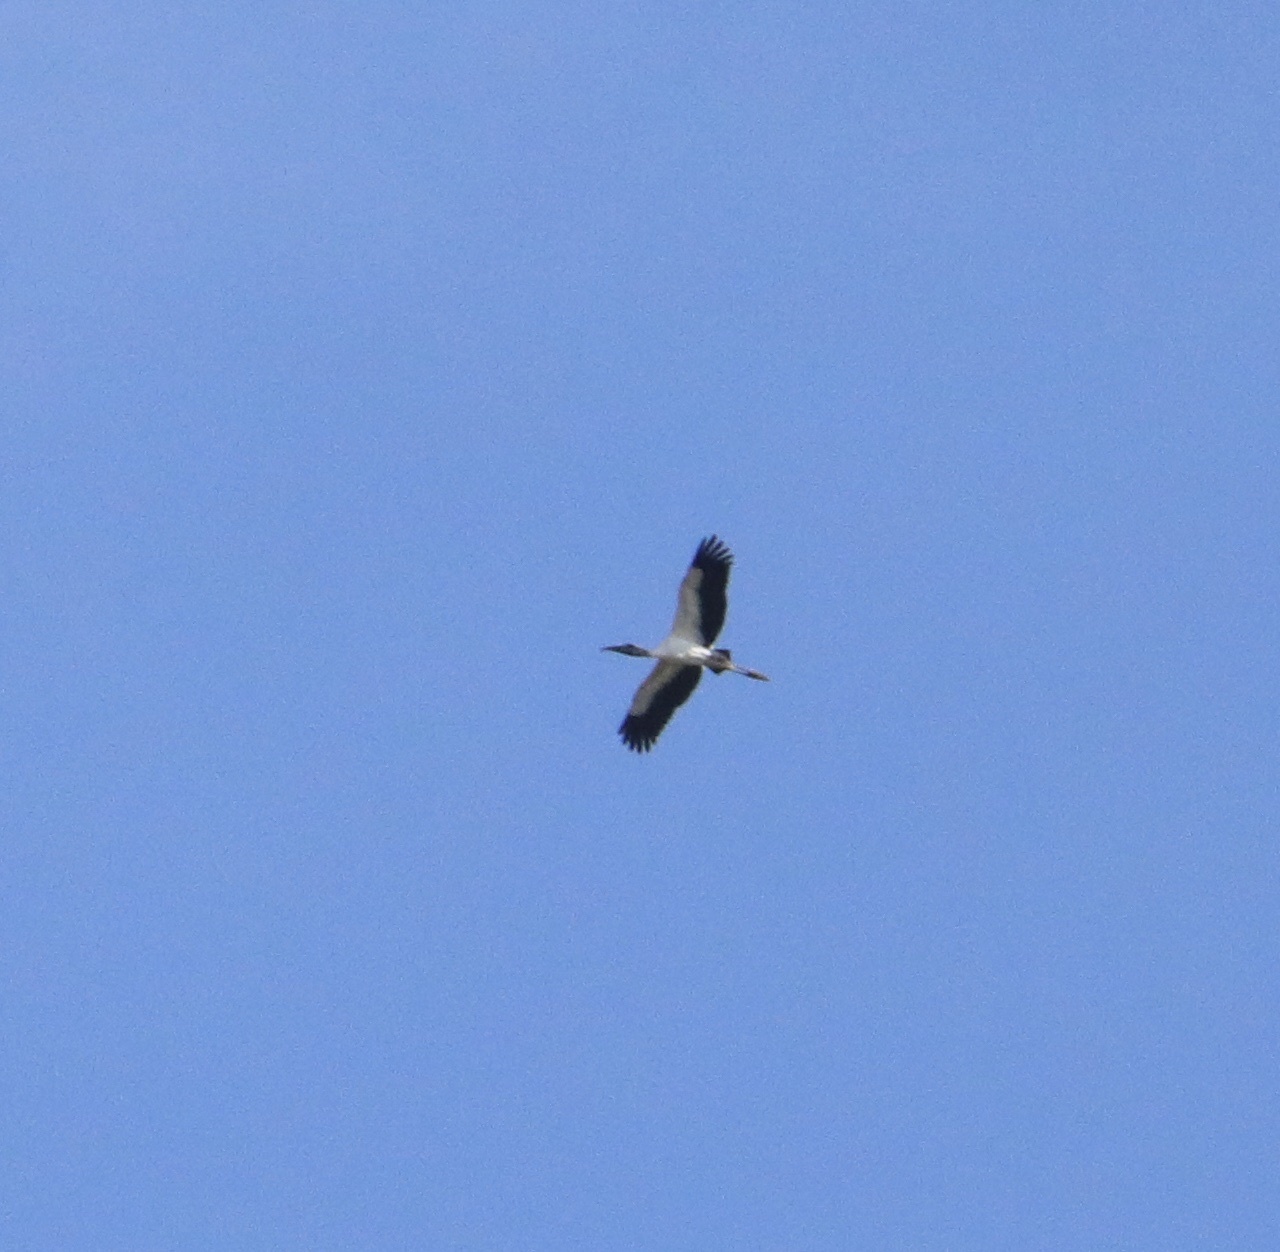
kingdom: Animalia
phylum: Chordata
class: Aves
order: Ciconiiformes
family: Ciconiidae
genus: Mycteria
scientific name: Mycteria americana
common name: Wood stork
